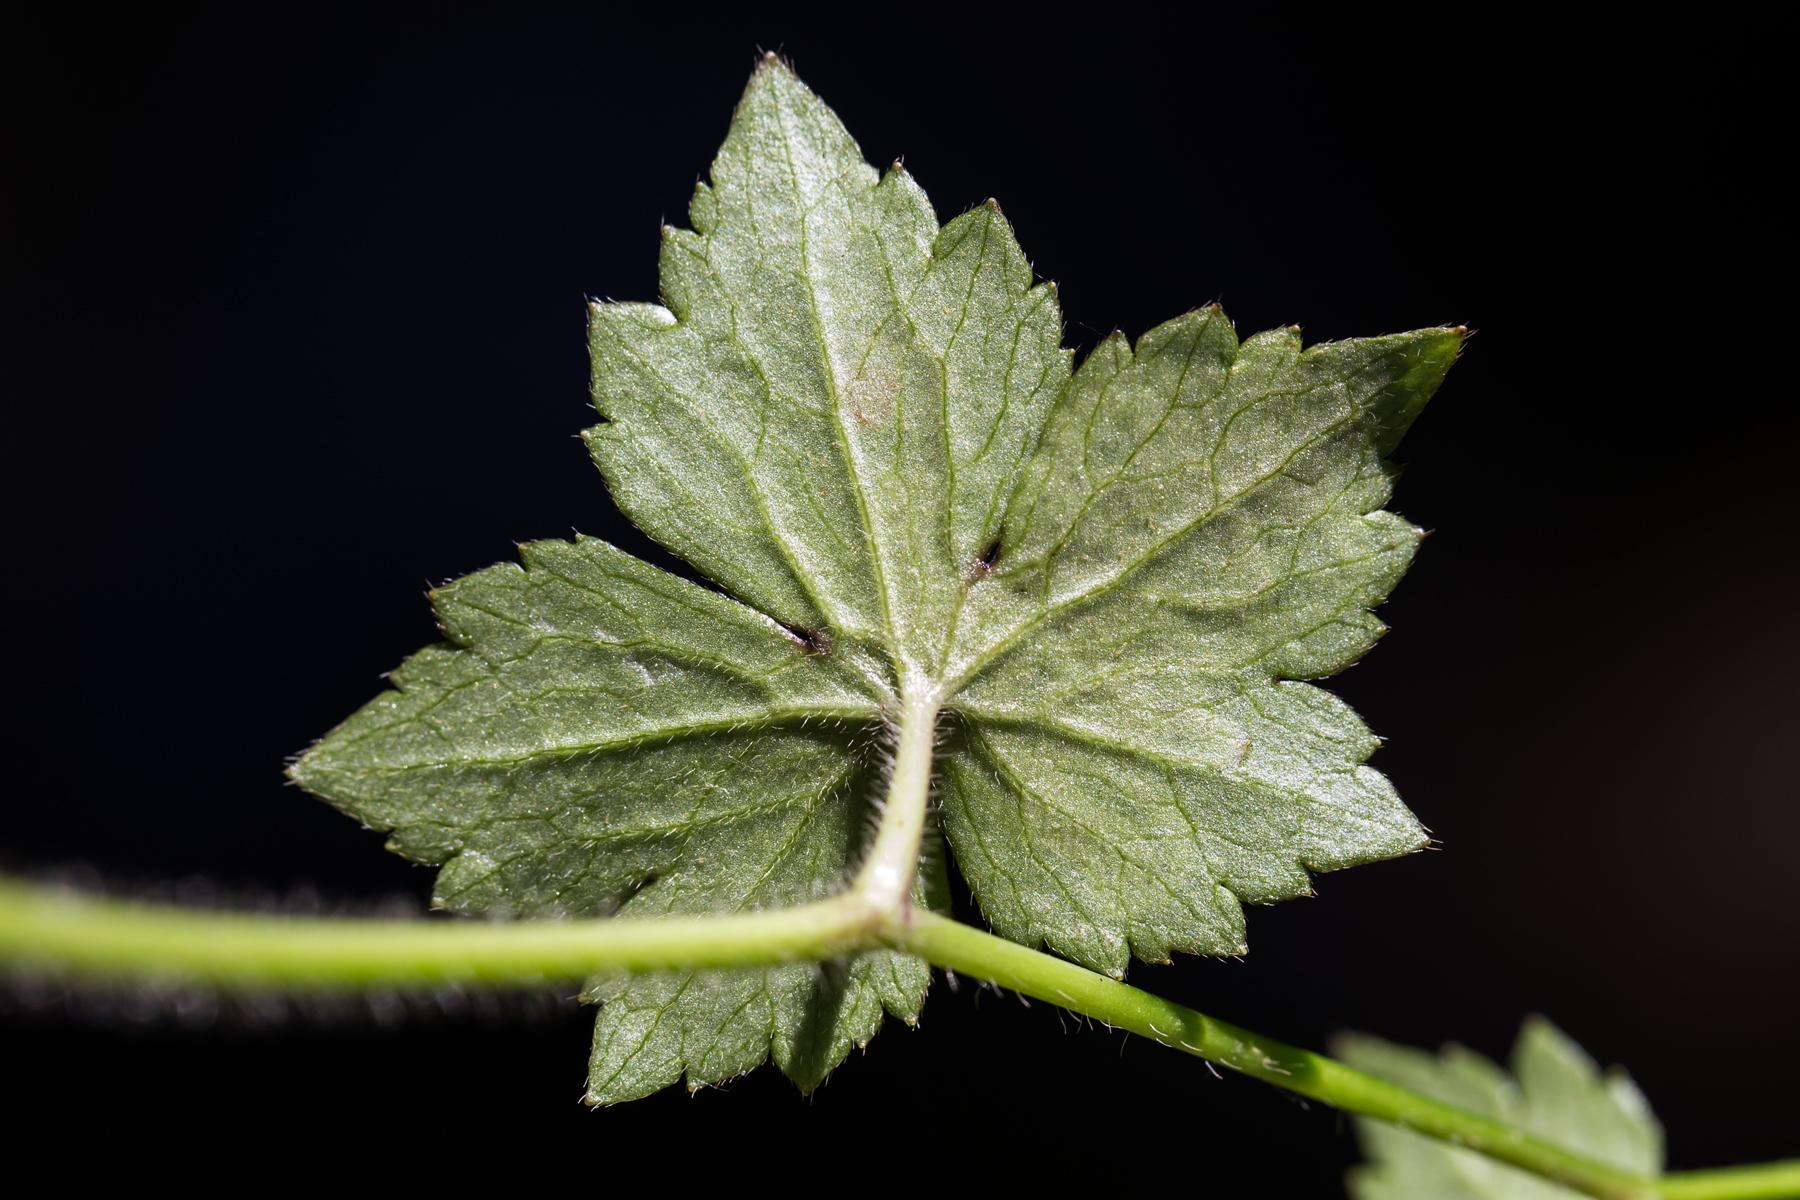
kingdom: Animalia
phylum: Arthropoda
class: Insecta
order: Diptera
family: Agromyzidae
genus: Phytomyza
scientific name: Phytomyza loewii
